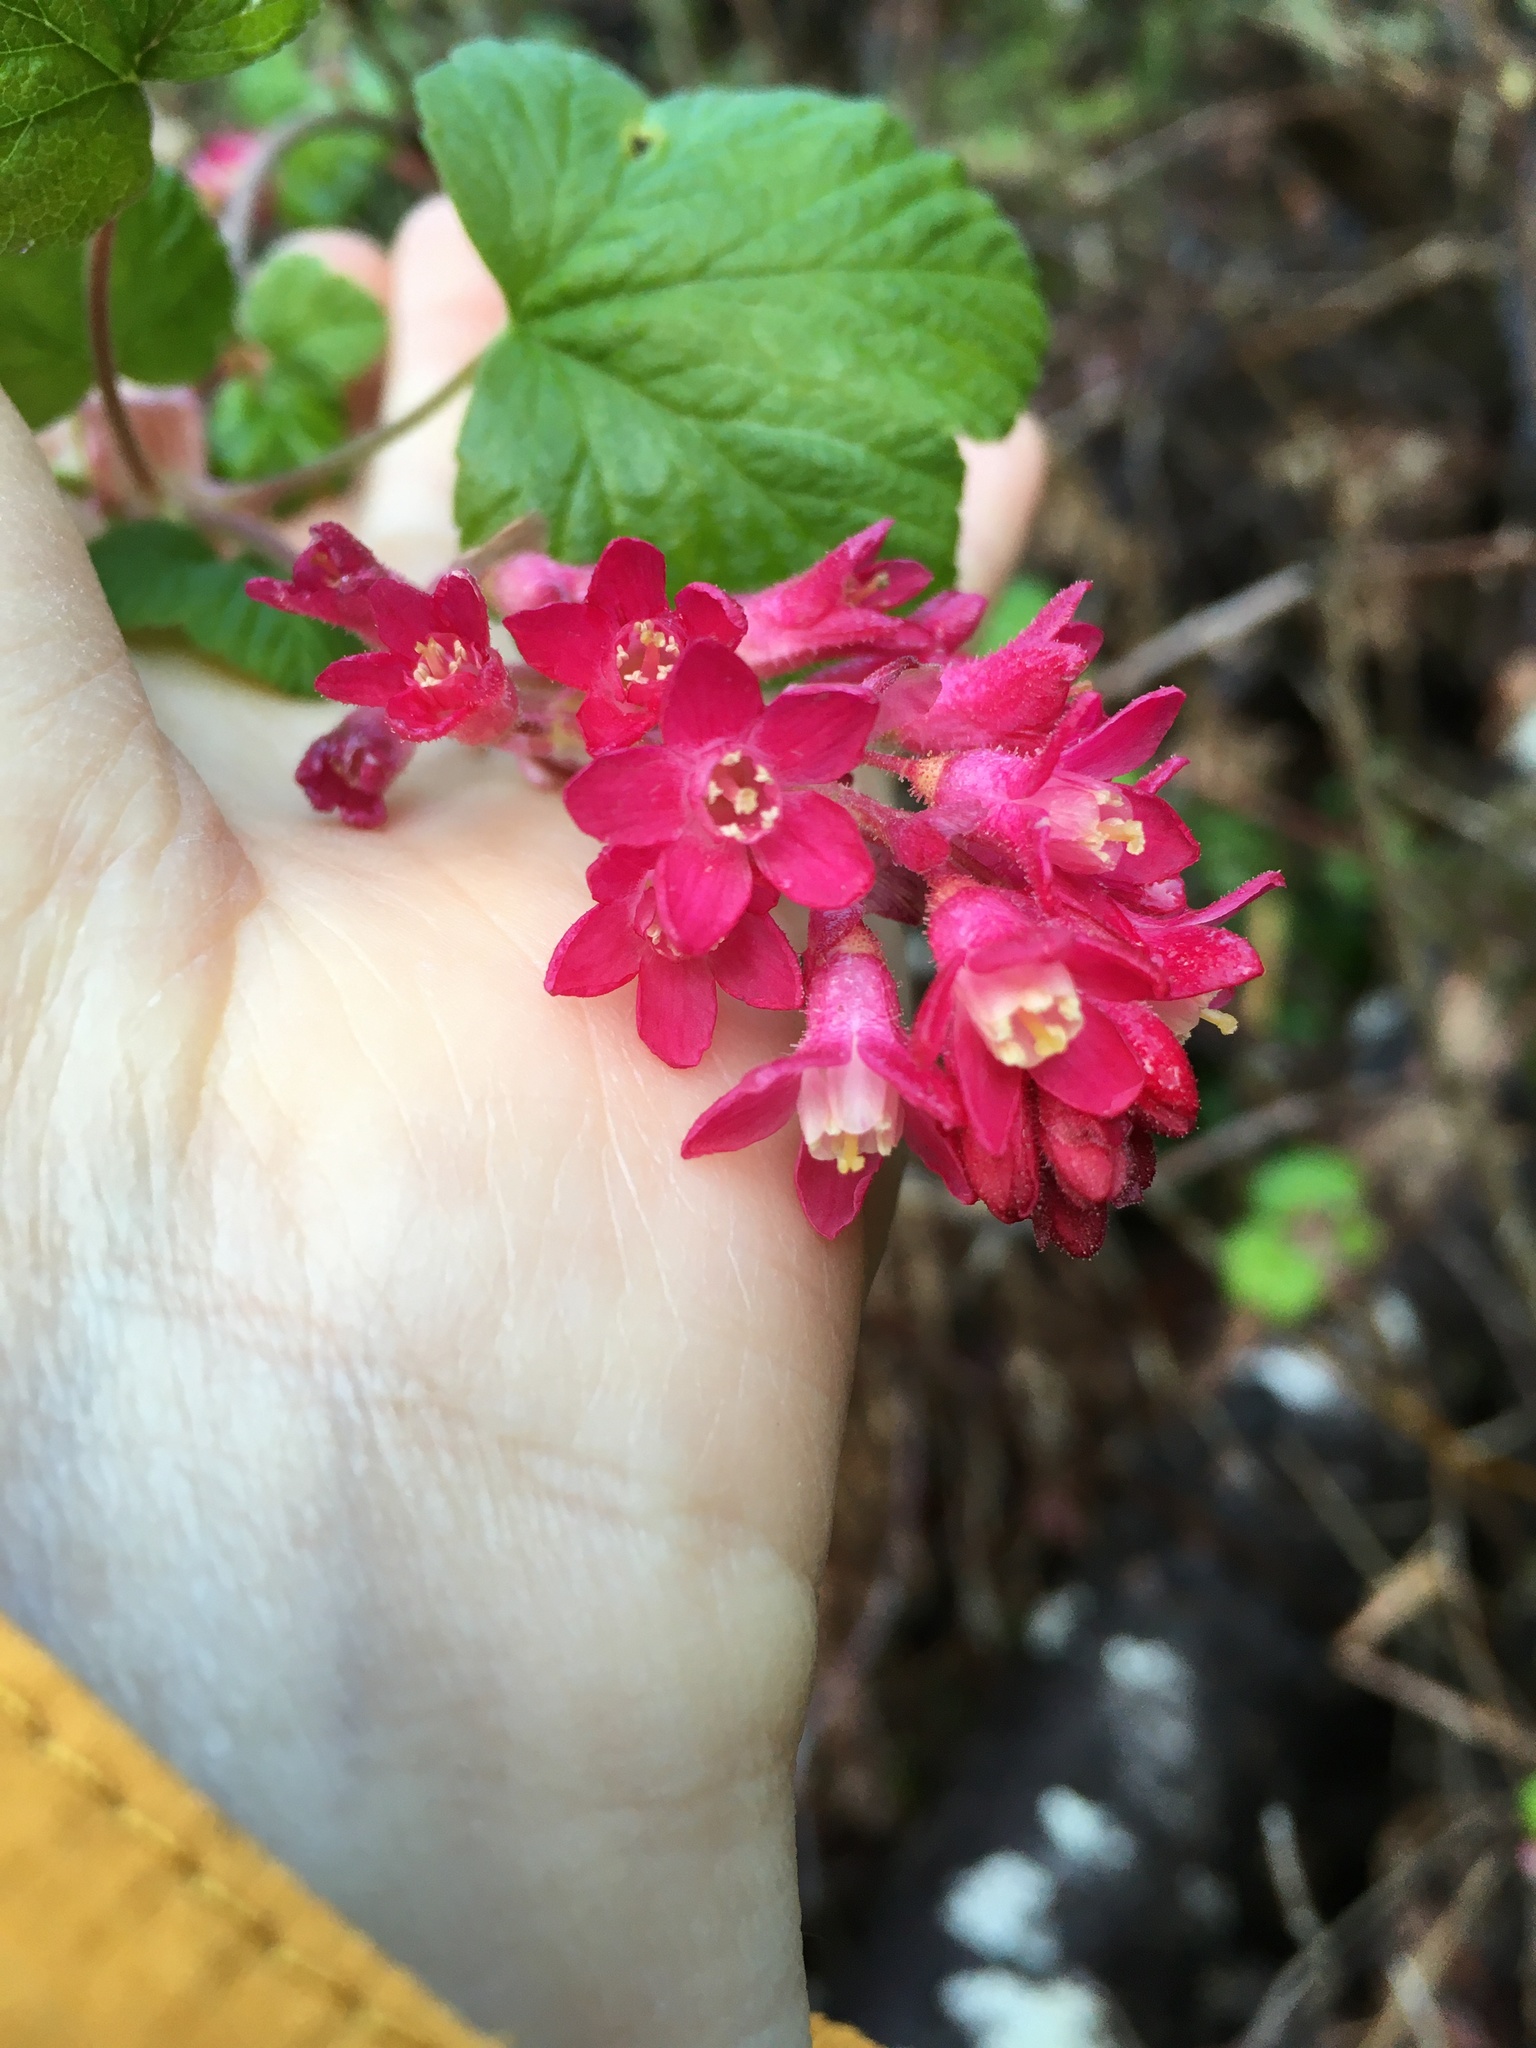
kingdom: Plantae
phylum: Tracheophyta
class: Magnoliopsida
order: Saxifragales
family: Grossulariaceae
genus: Ribes
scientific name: Ribes sanguineum
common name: Flowering currant
